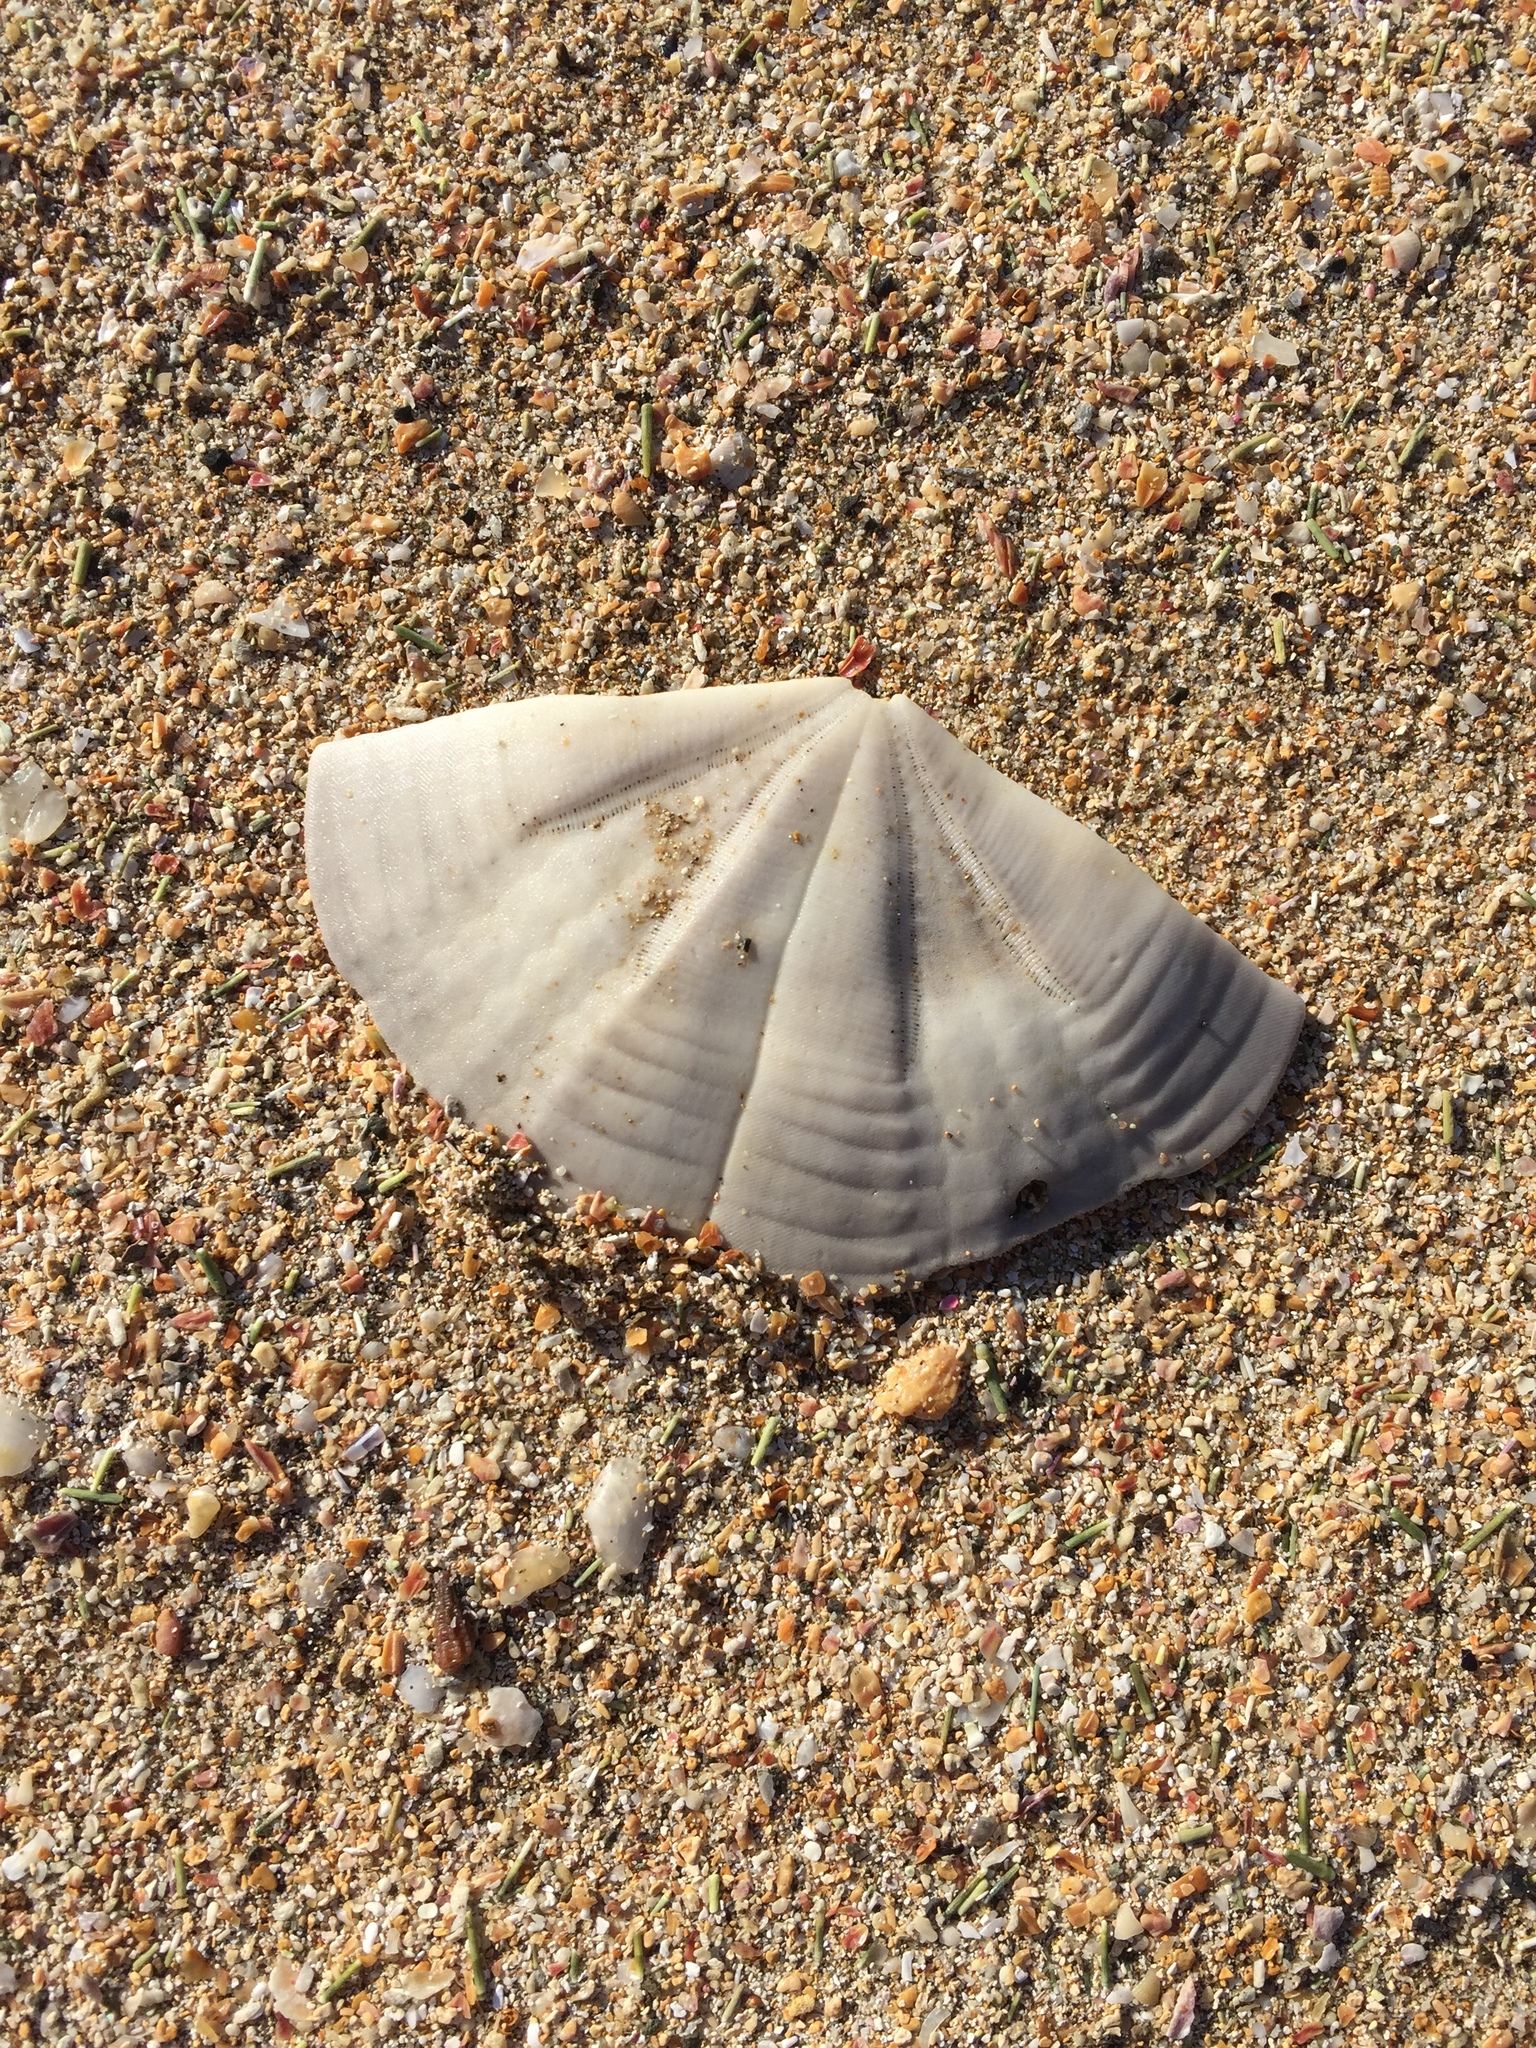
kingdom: Animalia
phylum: Echinodermata
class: Echinoidea
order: Clypeasteroida
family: Clypeasteridae
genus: Fellaster
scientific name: Fellaster zelandiae
